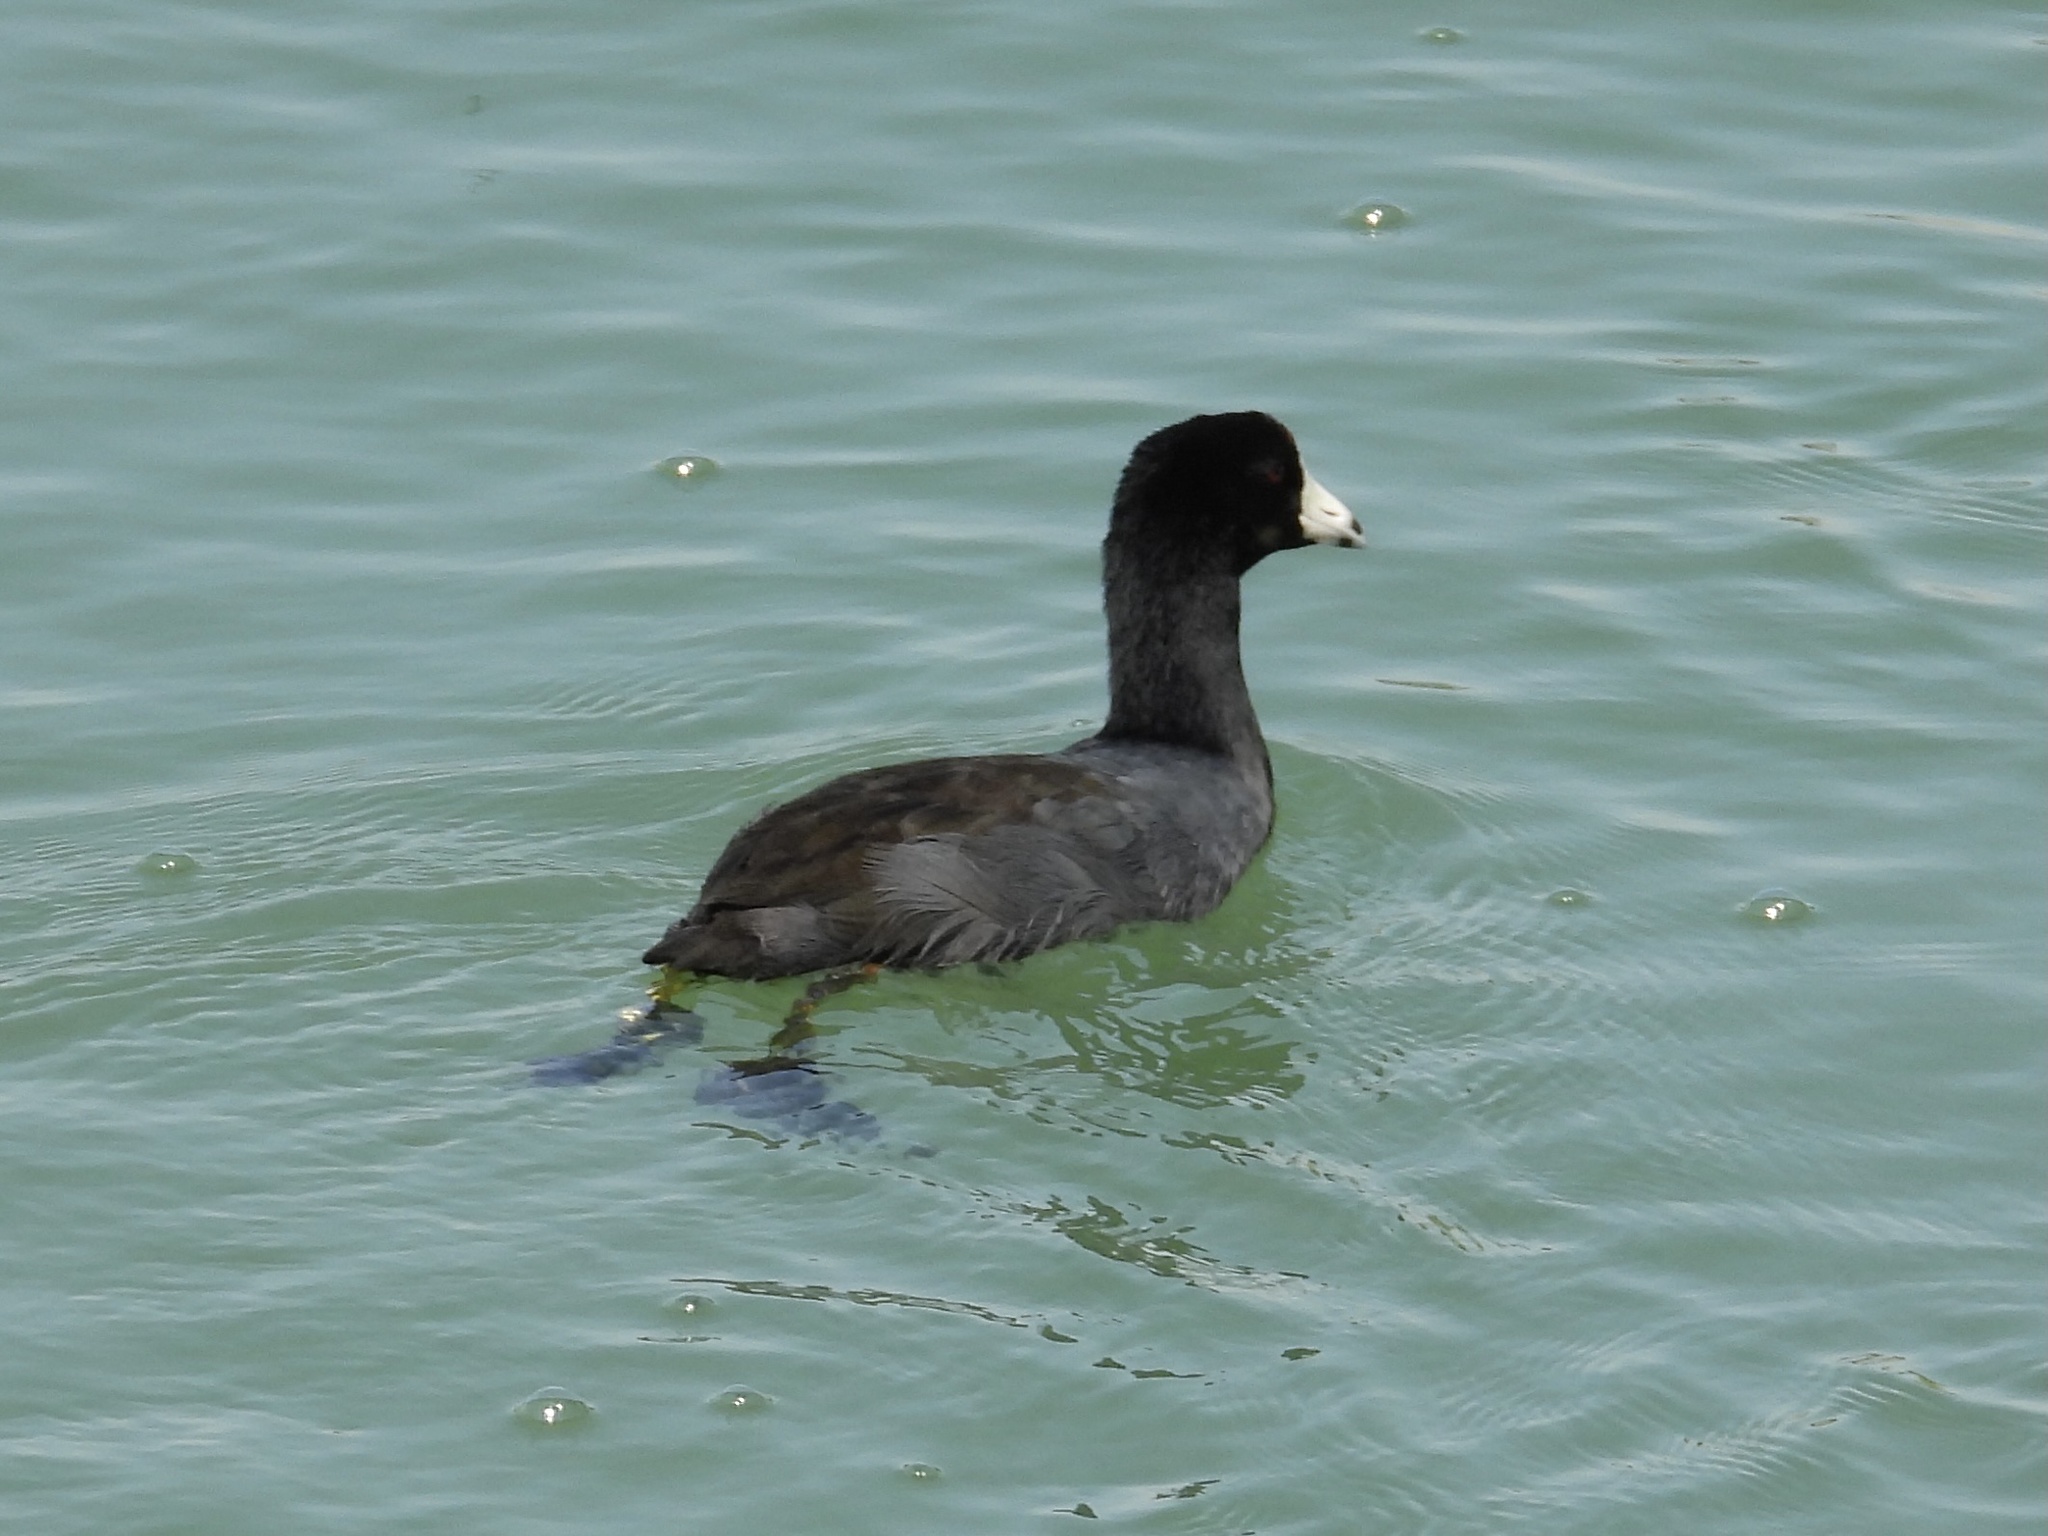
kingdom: Animalia
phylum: Chordata
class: Aves
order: Gruiformes
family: Rallidae
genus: Fulica
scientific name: Fulica americana
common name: American coot
